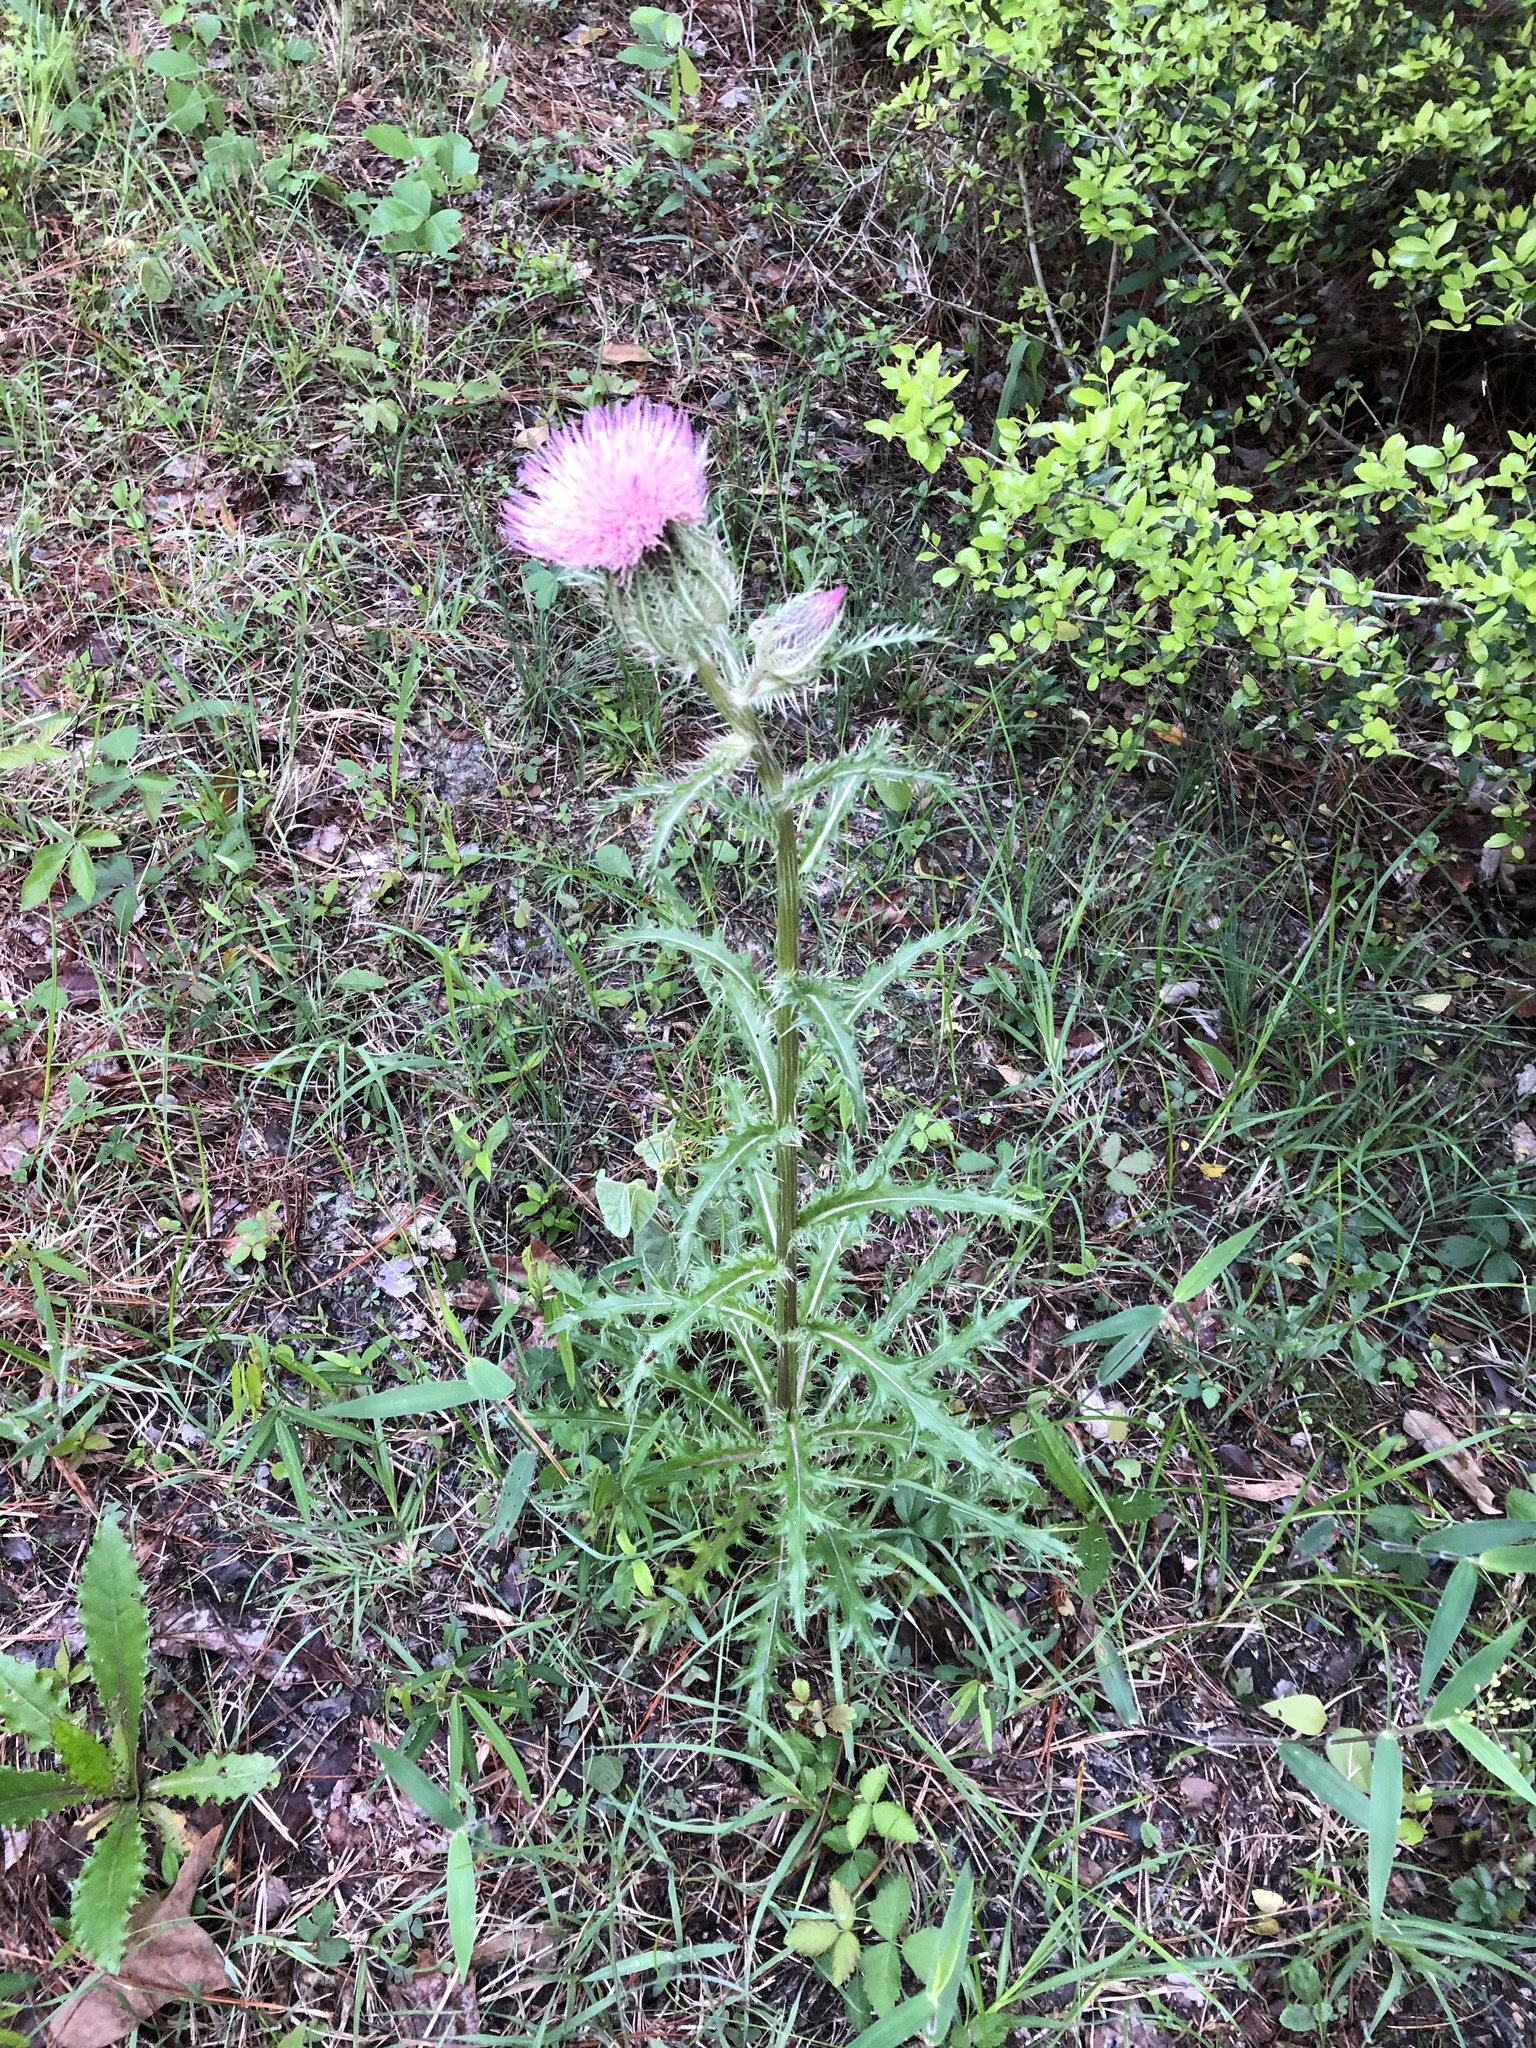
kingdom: Plantae
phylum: Tracheophyta
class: Magnoliopsida
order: Asterales
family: Asteraceae
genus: Cirsium
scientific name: Cirsium horridulum
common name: Bristly thistle
